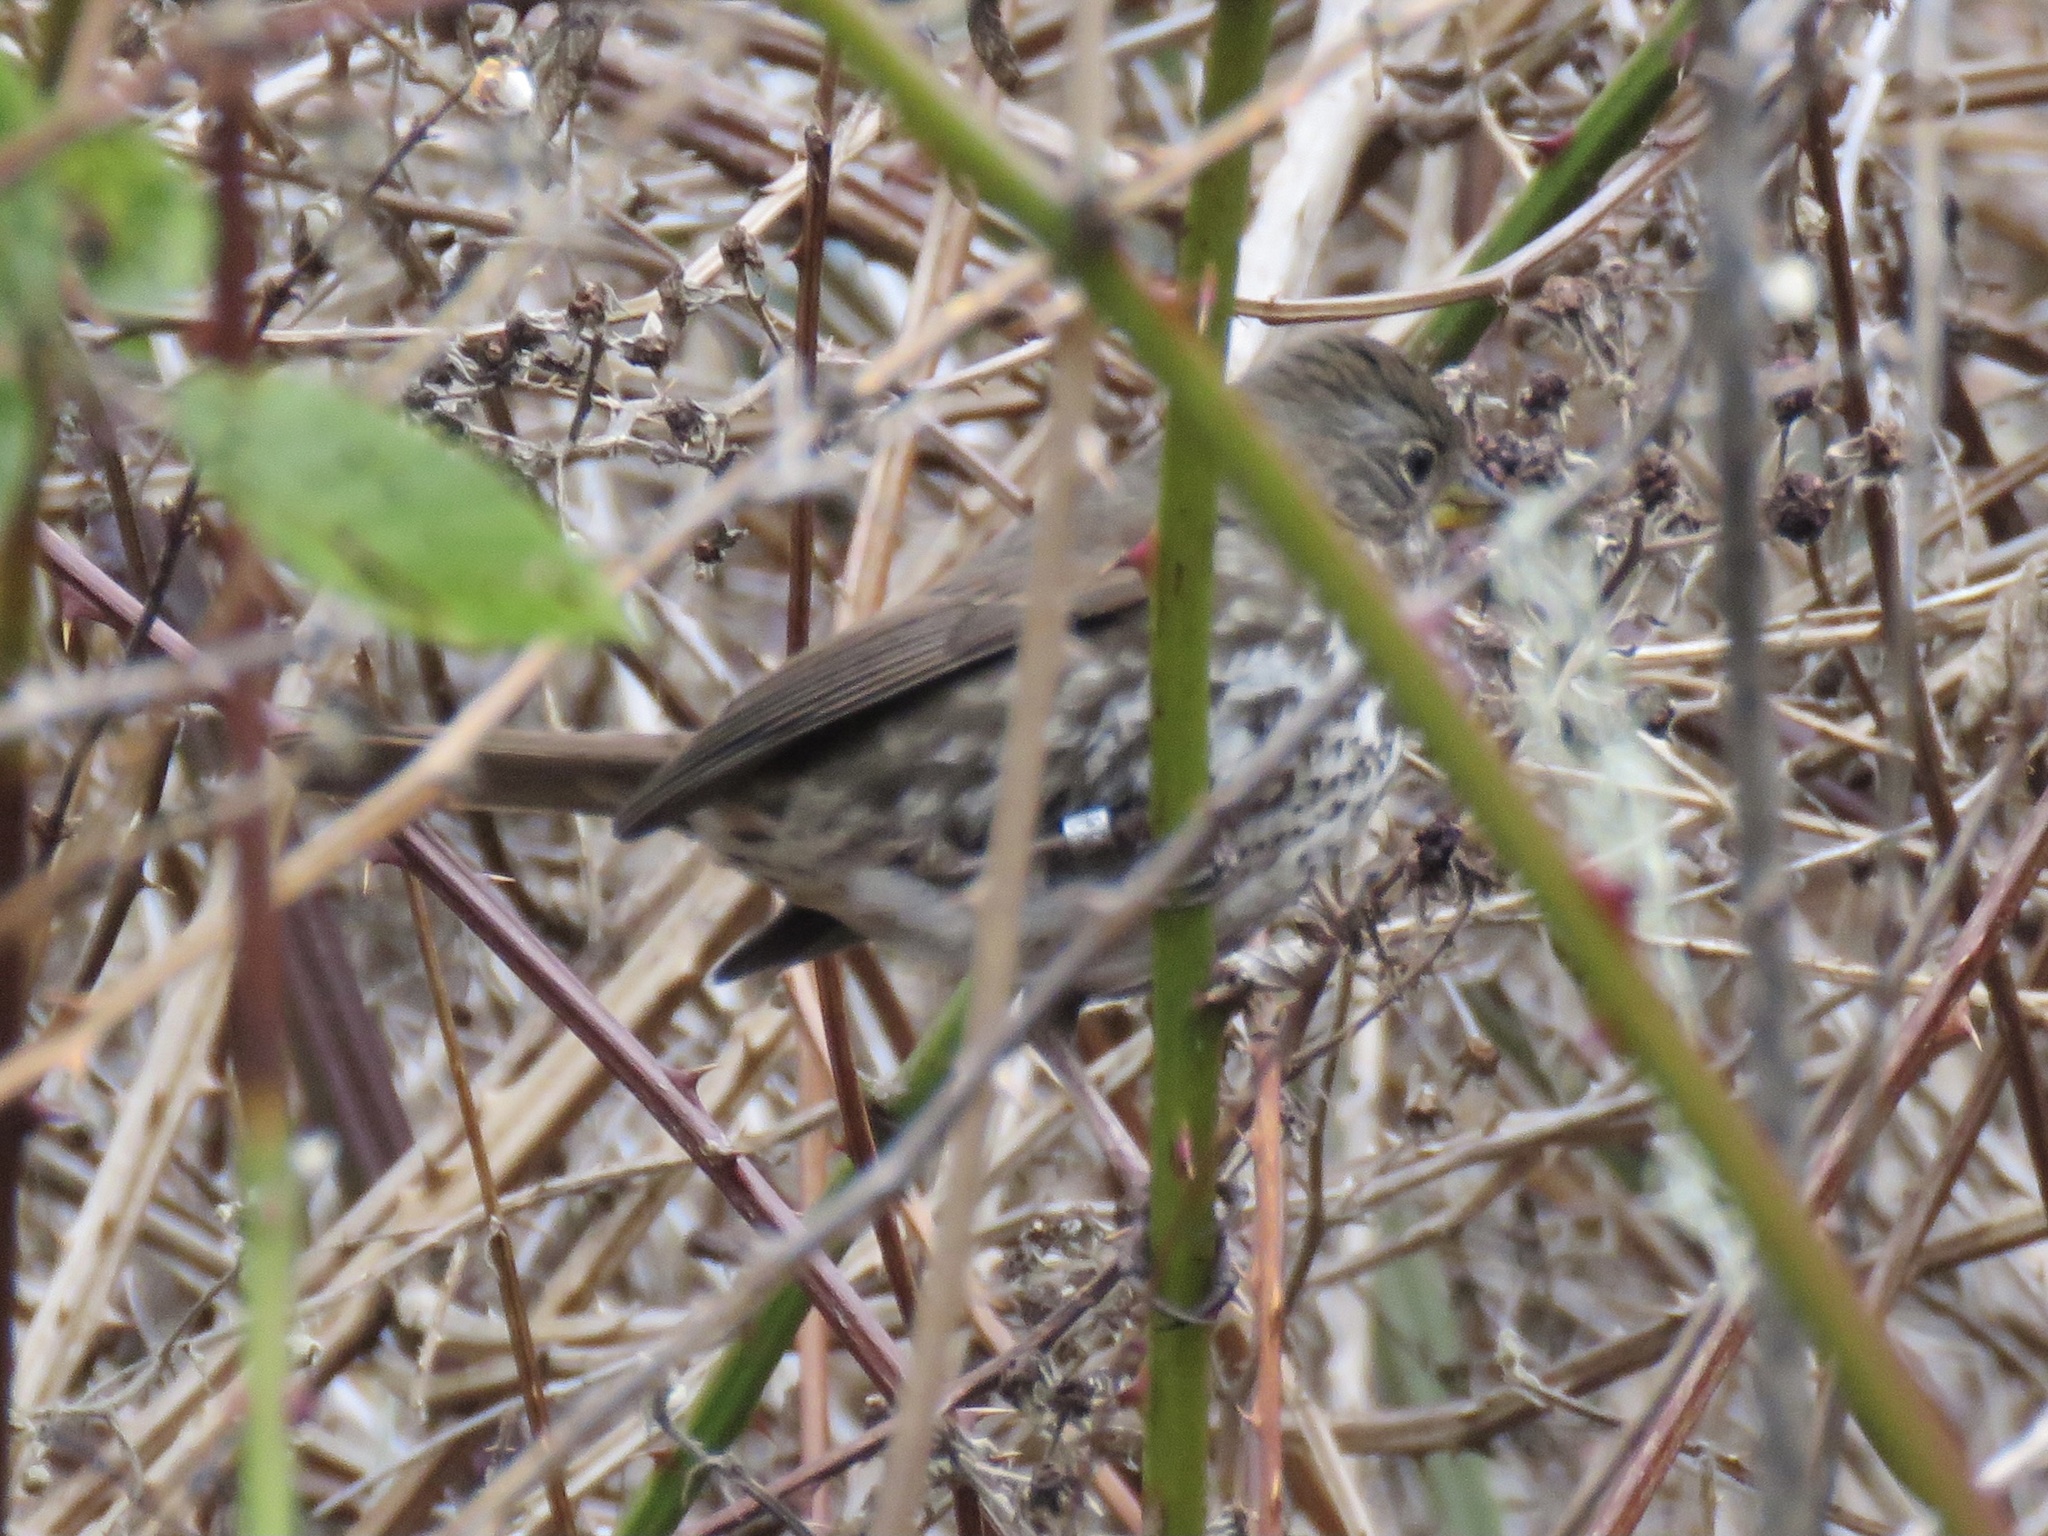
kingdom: Animalia
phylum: Chordata
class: Aves
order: Passeriformes
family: Passerellidae
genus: Passerella
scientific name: Passerella iliaca
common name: Fox sparrow
